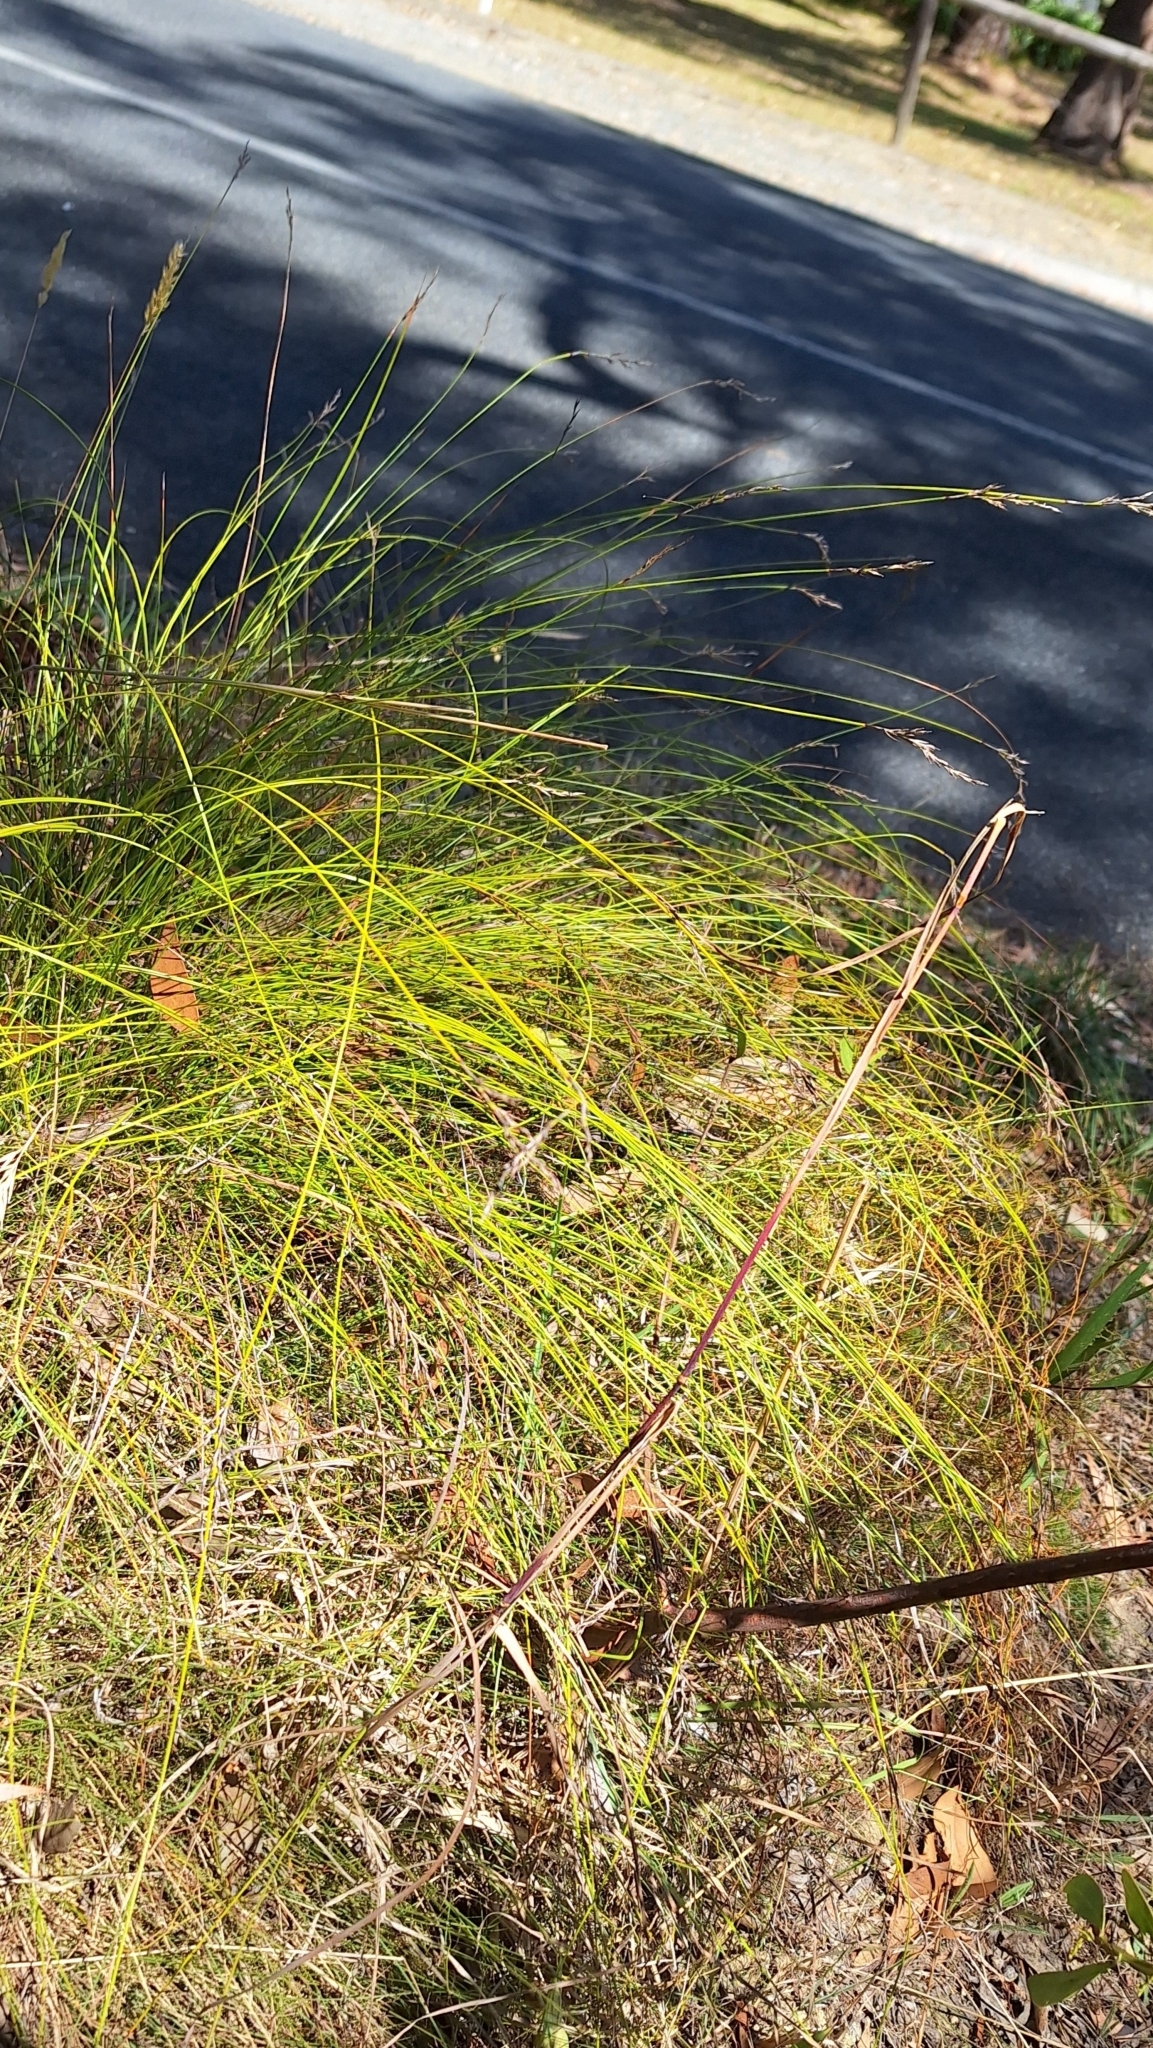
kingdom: Plantae
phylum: Tracheophyta
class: Liliopsida
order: Poales
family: Cyperaceae
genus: Lepidosperma
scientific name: Lepidosperma semiteres
